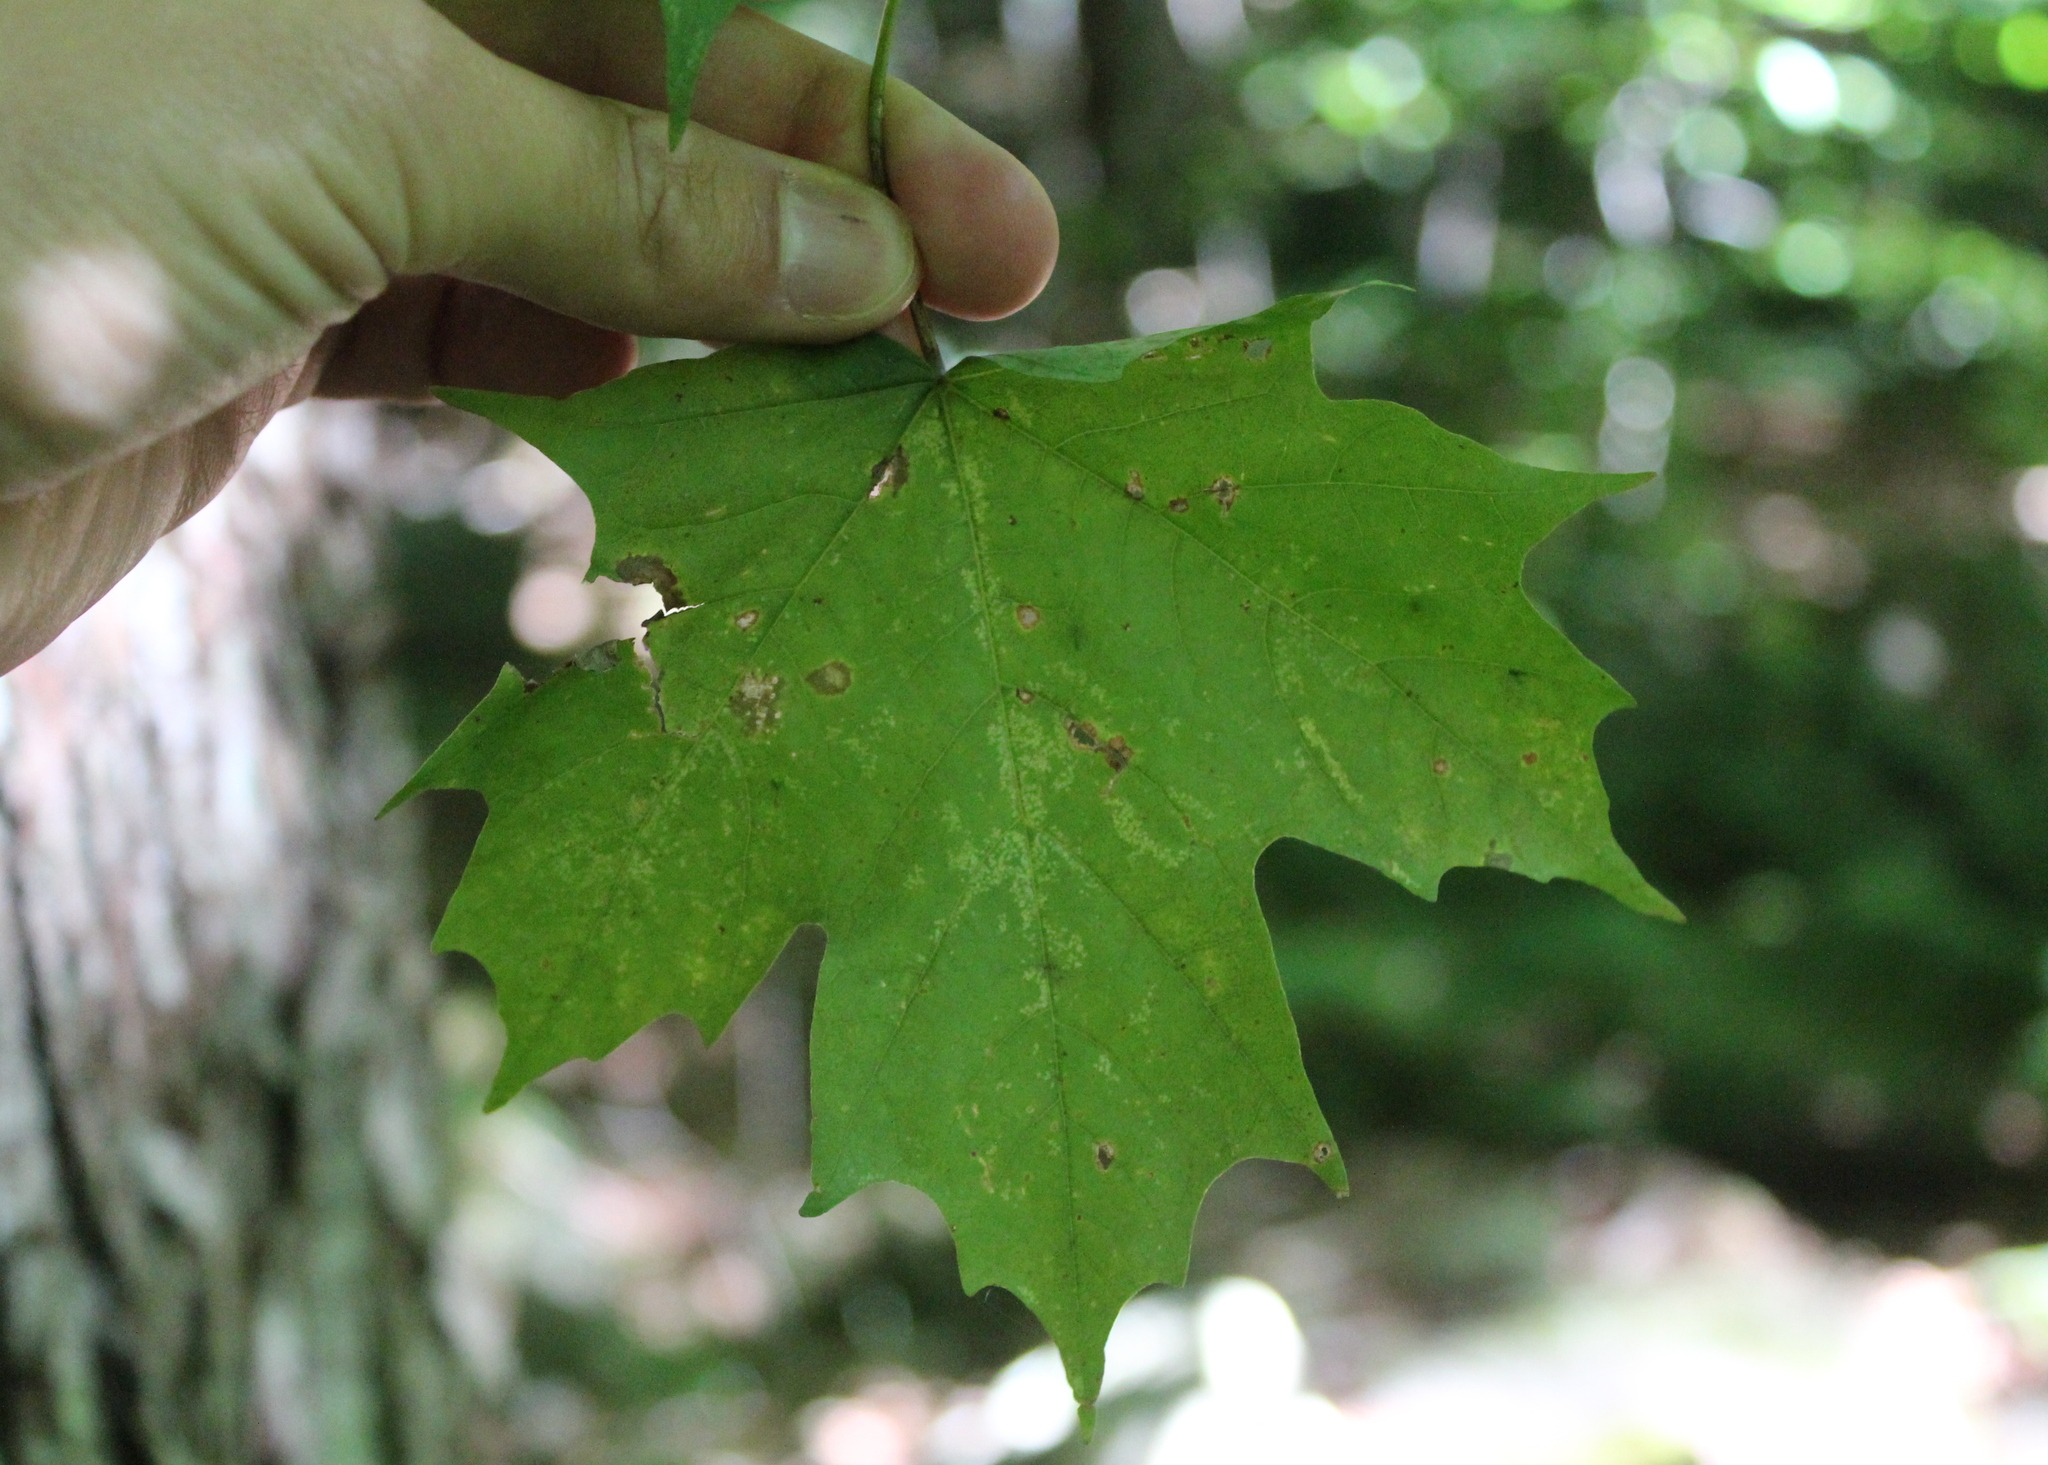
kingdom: Plantae
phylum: Tracheophyta
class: Magnoliopsida
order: Sapindales
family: Sapindaceae
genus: Acer
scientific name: Acer saccharum
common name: Sugar maple
